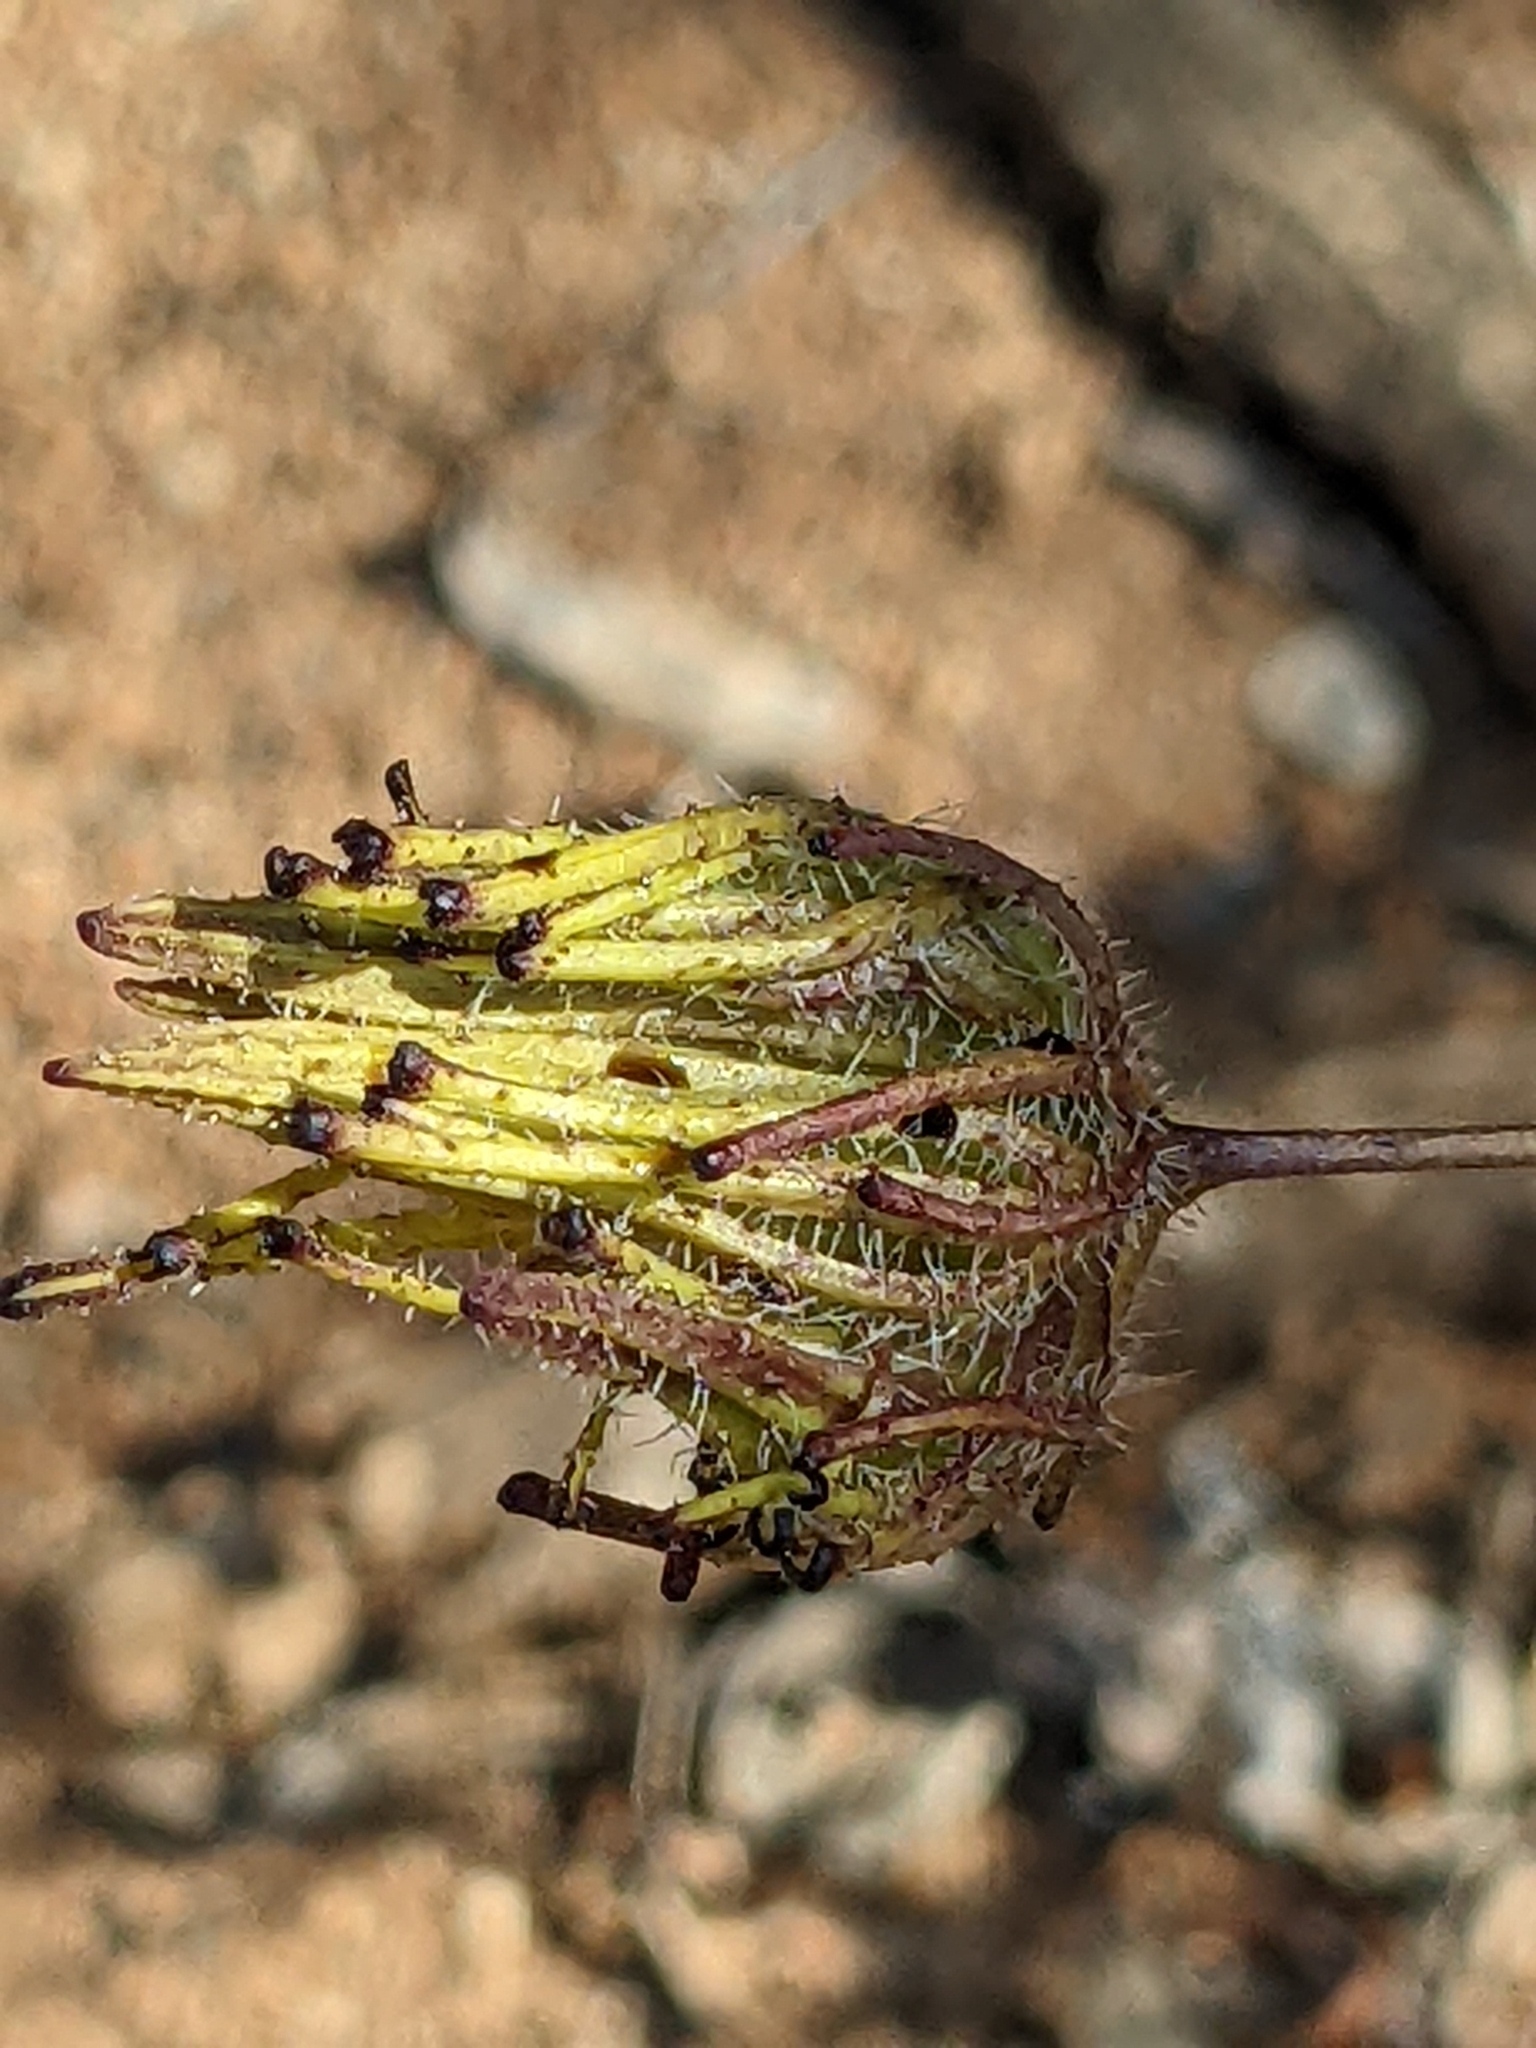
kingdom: Plantae
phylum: Tracheophyta
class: Magnoliopsida
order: Lamiales
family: Orobanchaceae
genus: Cordylanthus
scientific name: Cordylanthus rigidus
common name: Stiff-branch bird's-beak
